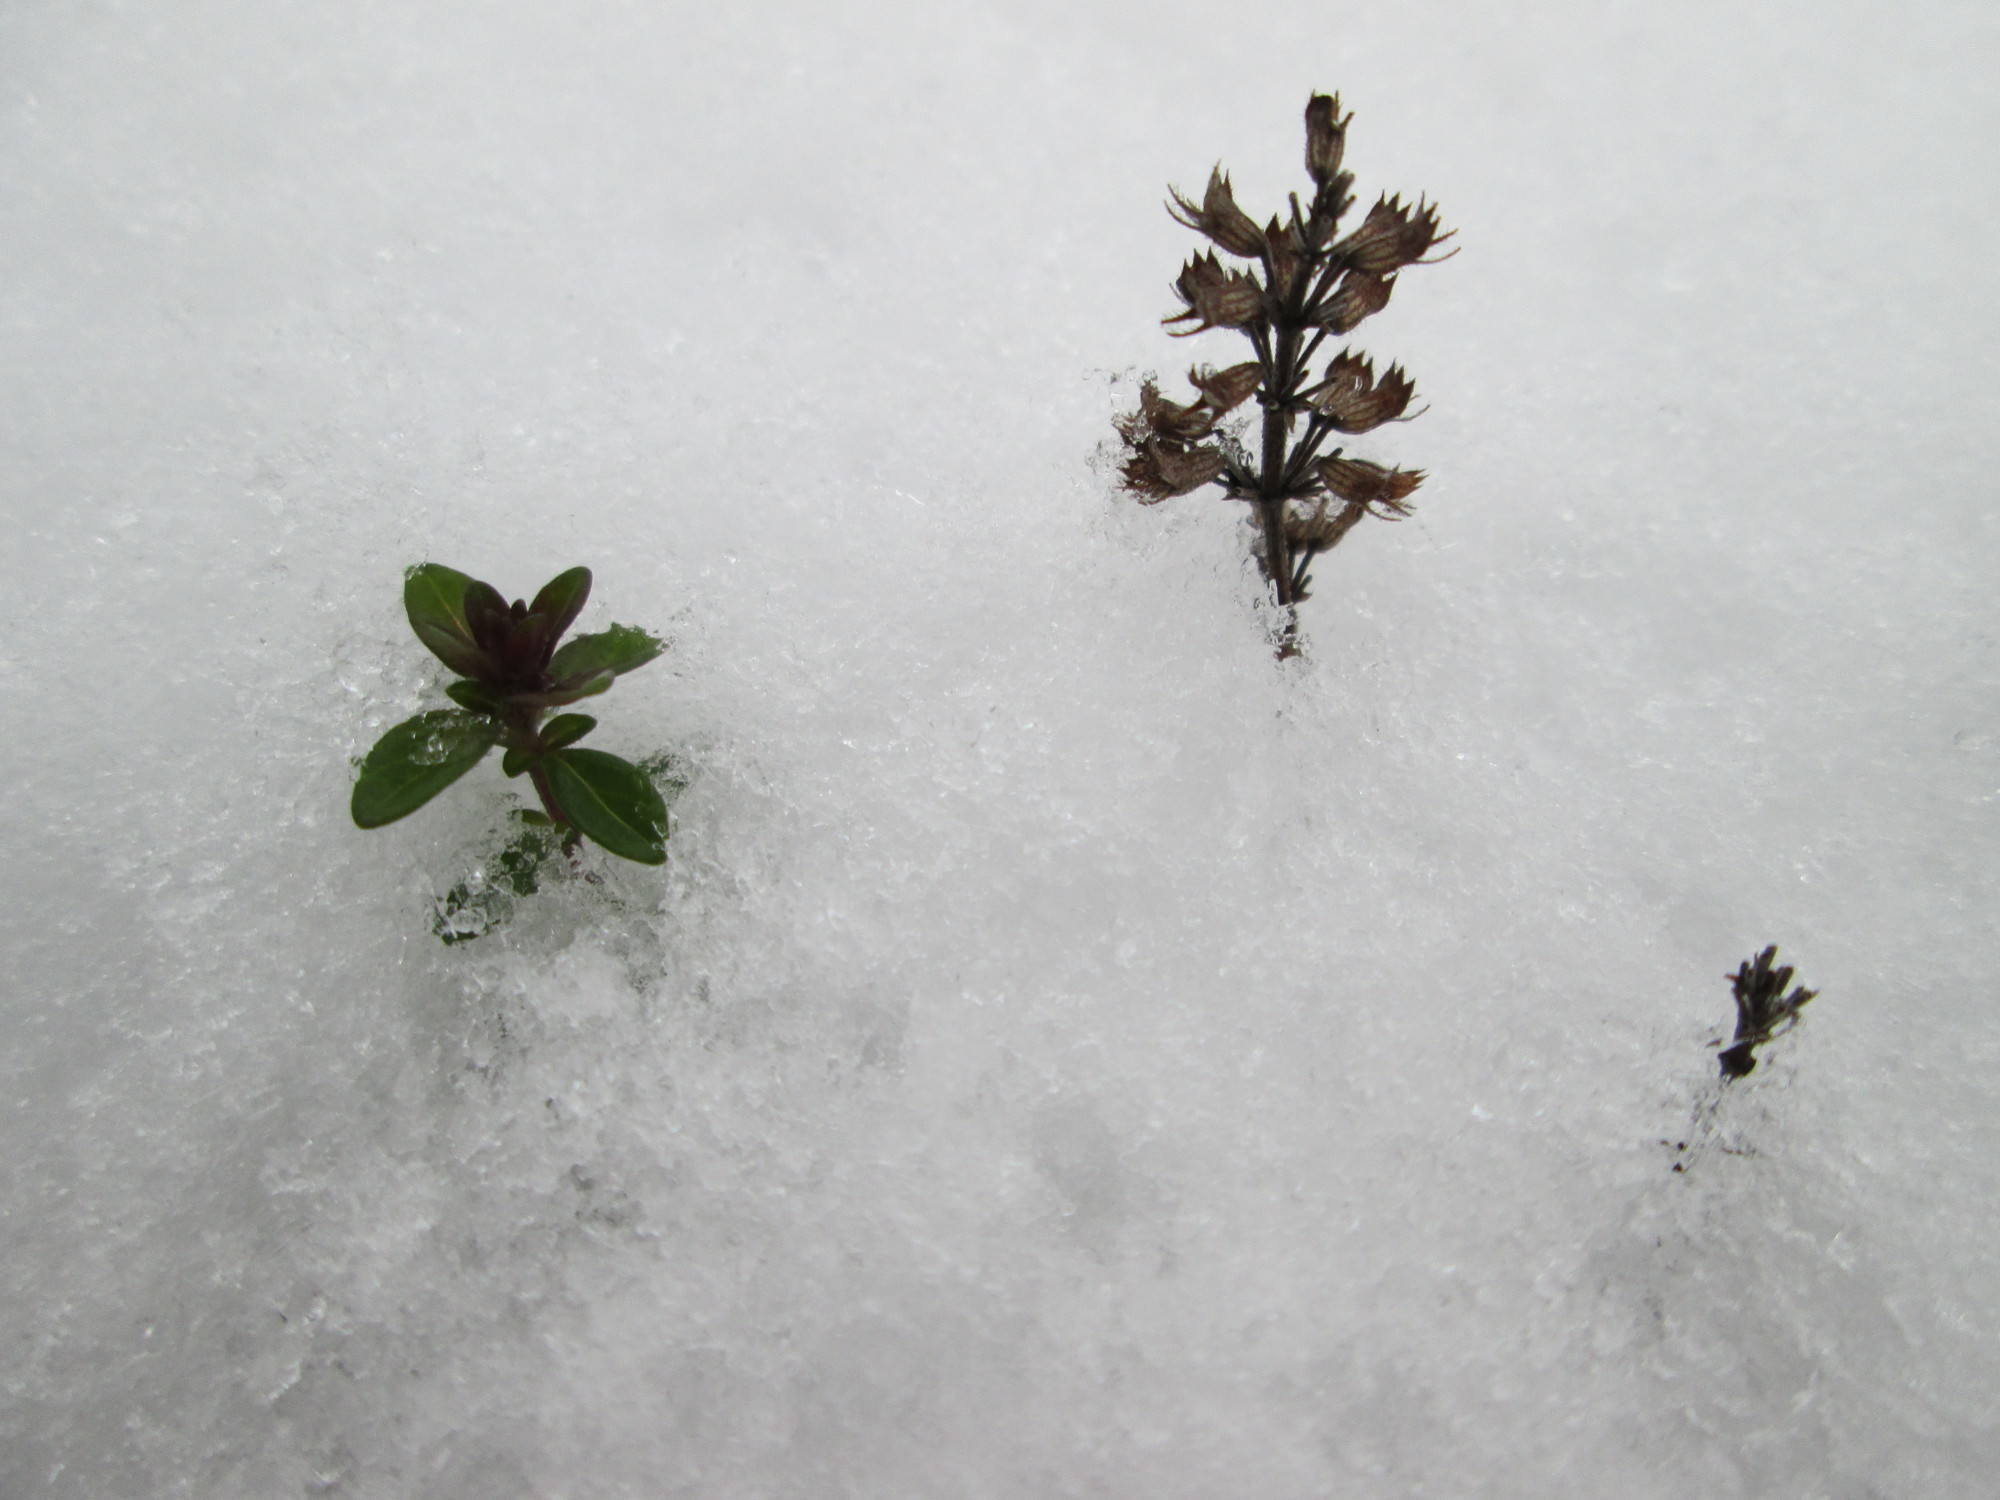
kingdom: Plantae
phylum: Tracheophyta
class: Magnoliopsida
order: Lamiales
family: Lamiaceae
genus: Thymus
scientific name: Thymus pulegioides
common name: Large thyme
